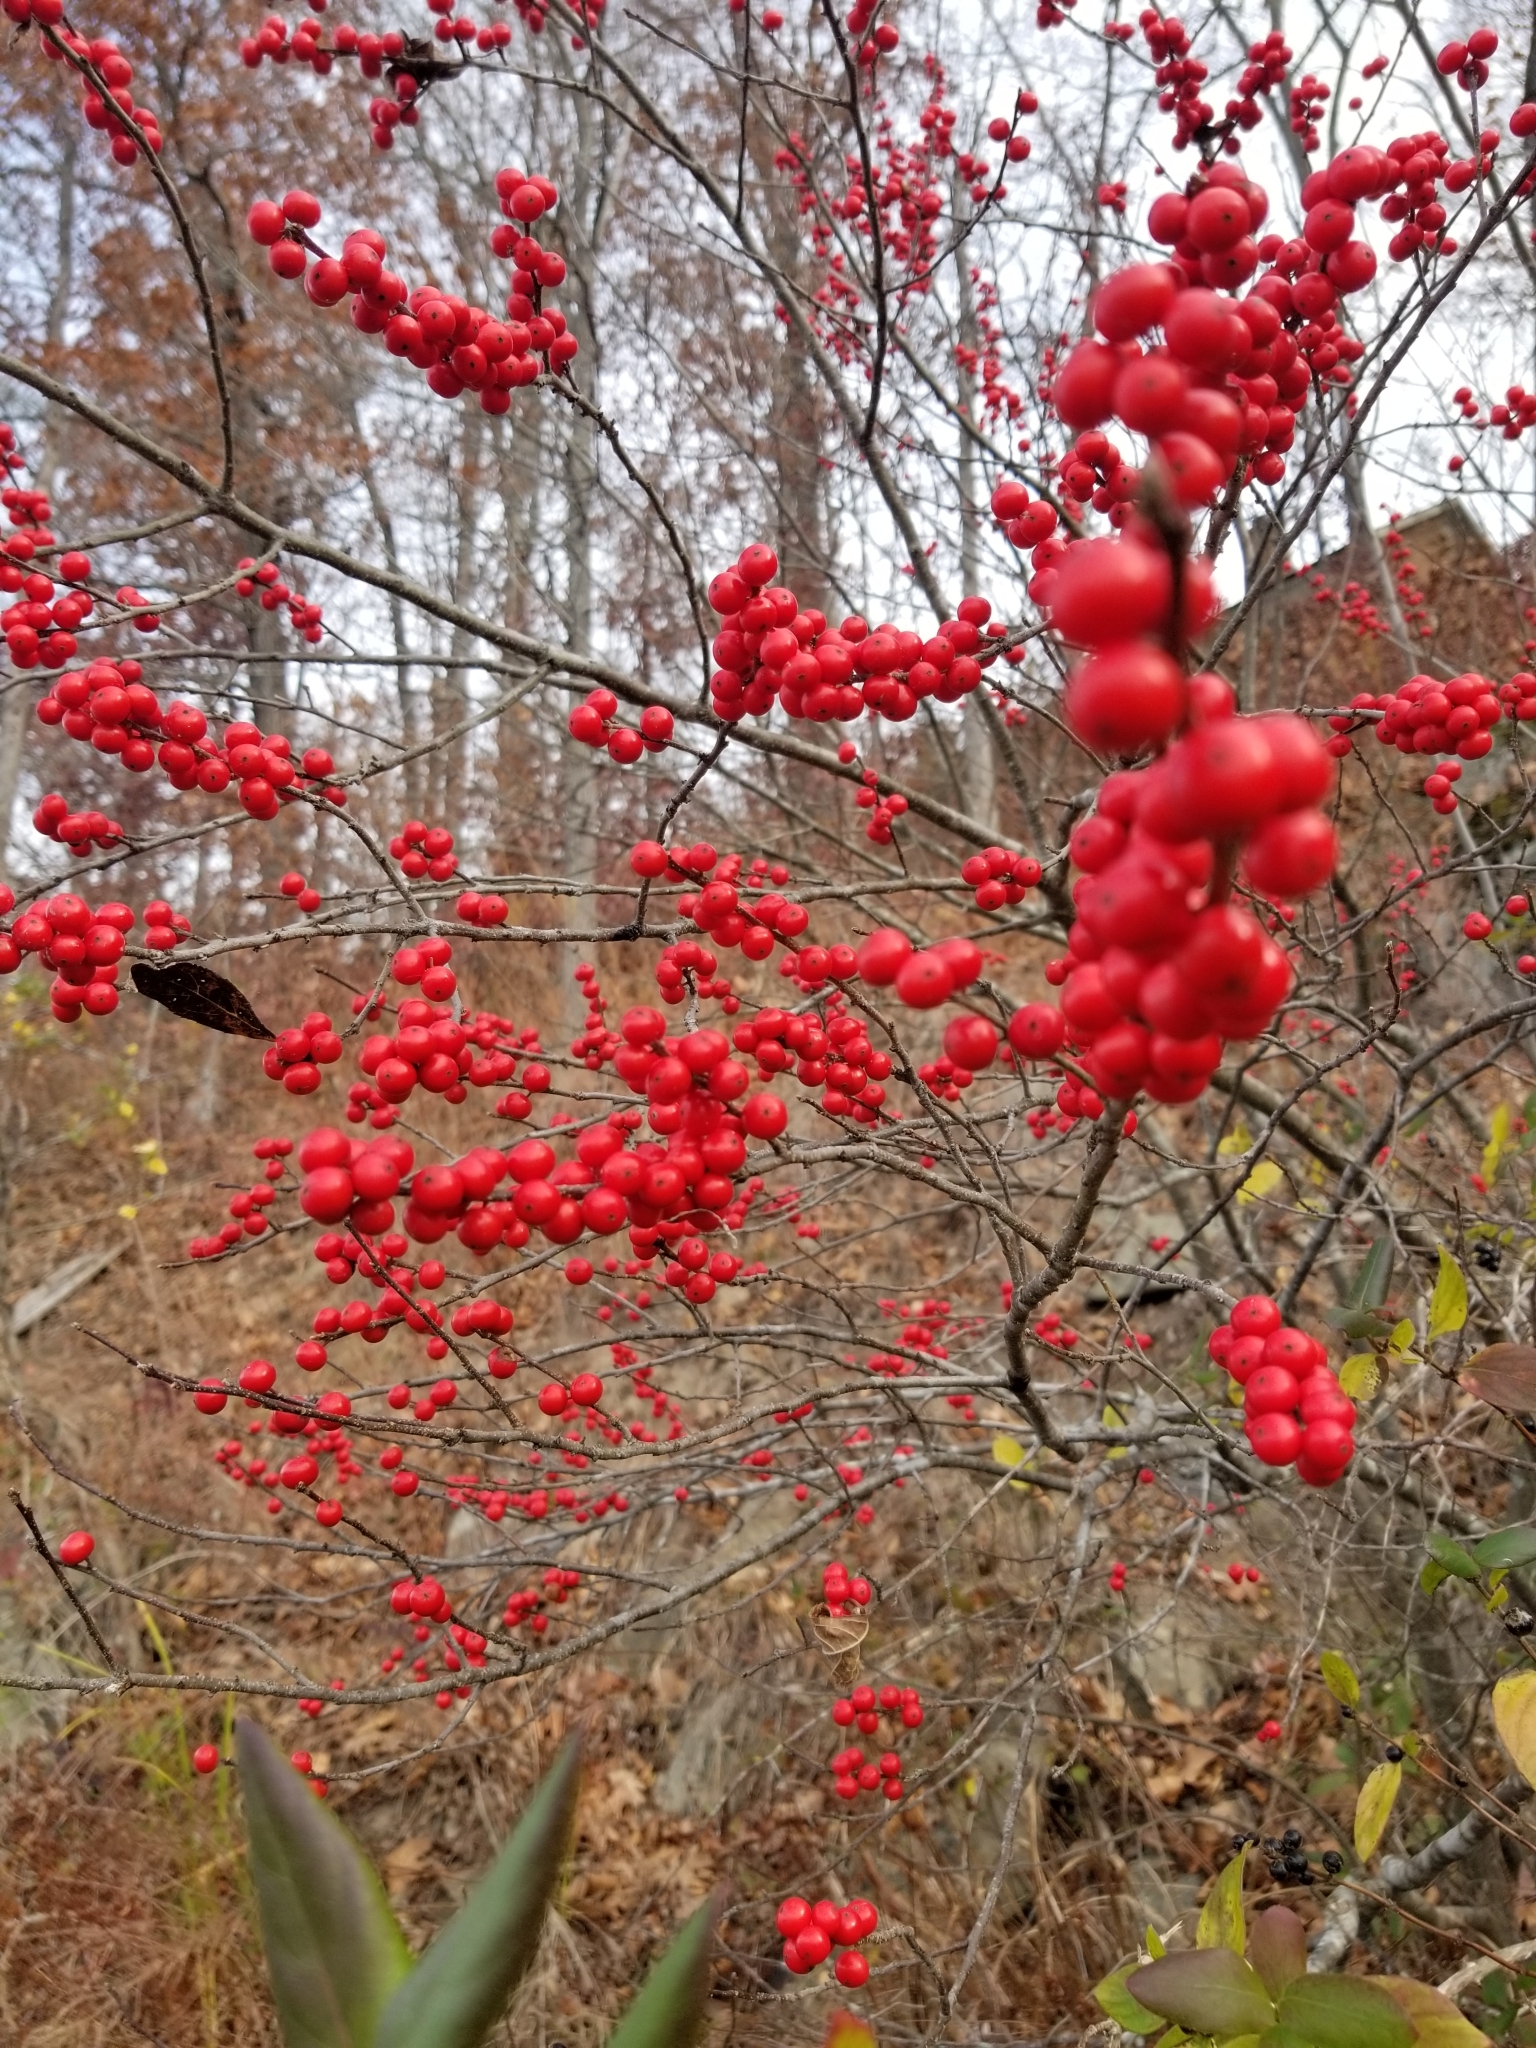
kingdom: Plantae
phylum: Tracheophyta
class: Magnoliopsida
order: Aquifoliales
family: Aquifoliaceae
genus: Ilex
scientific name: Ilex verticillata
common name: Virginia winterberry
